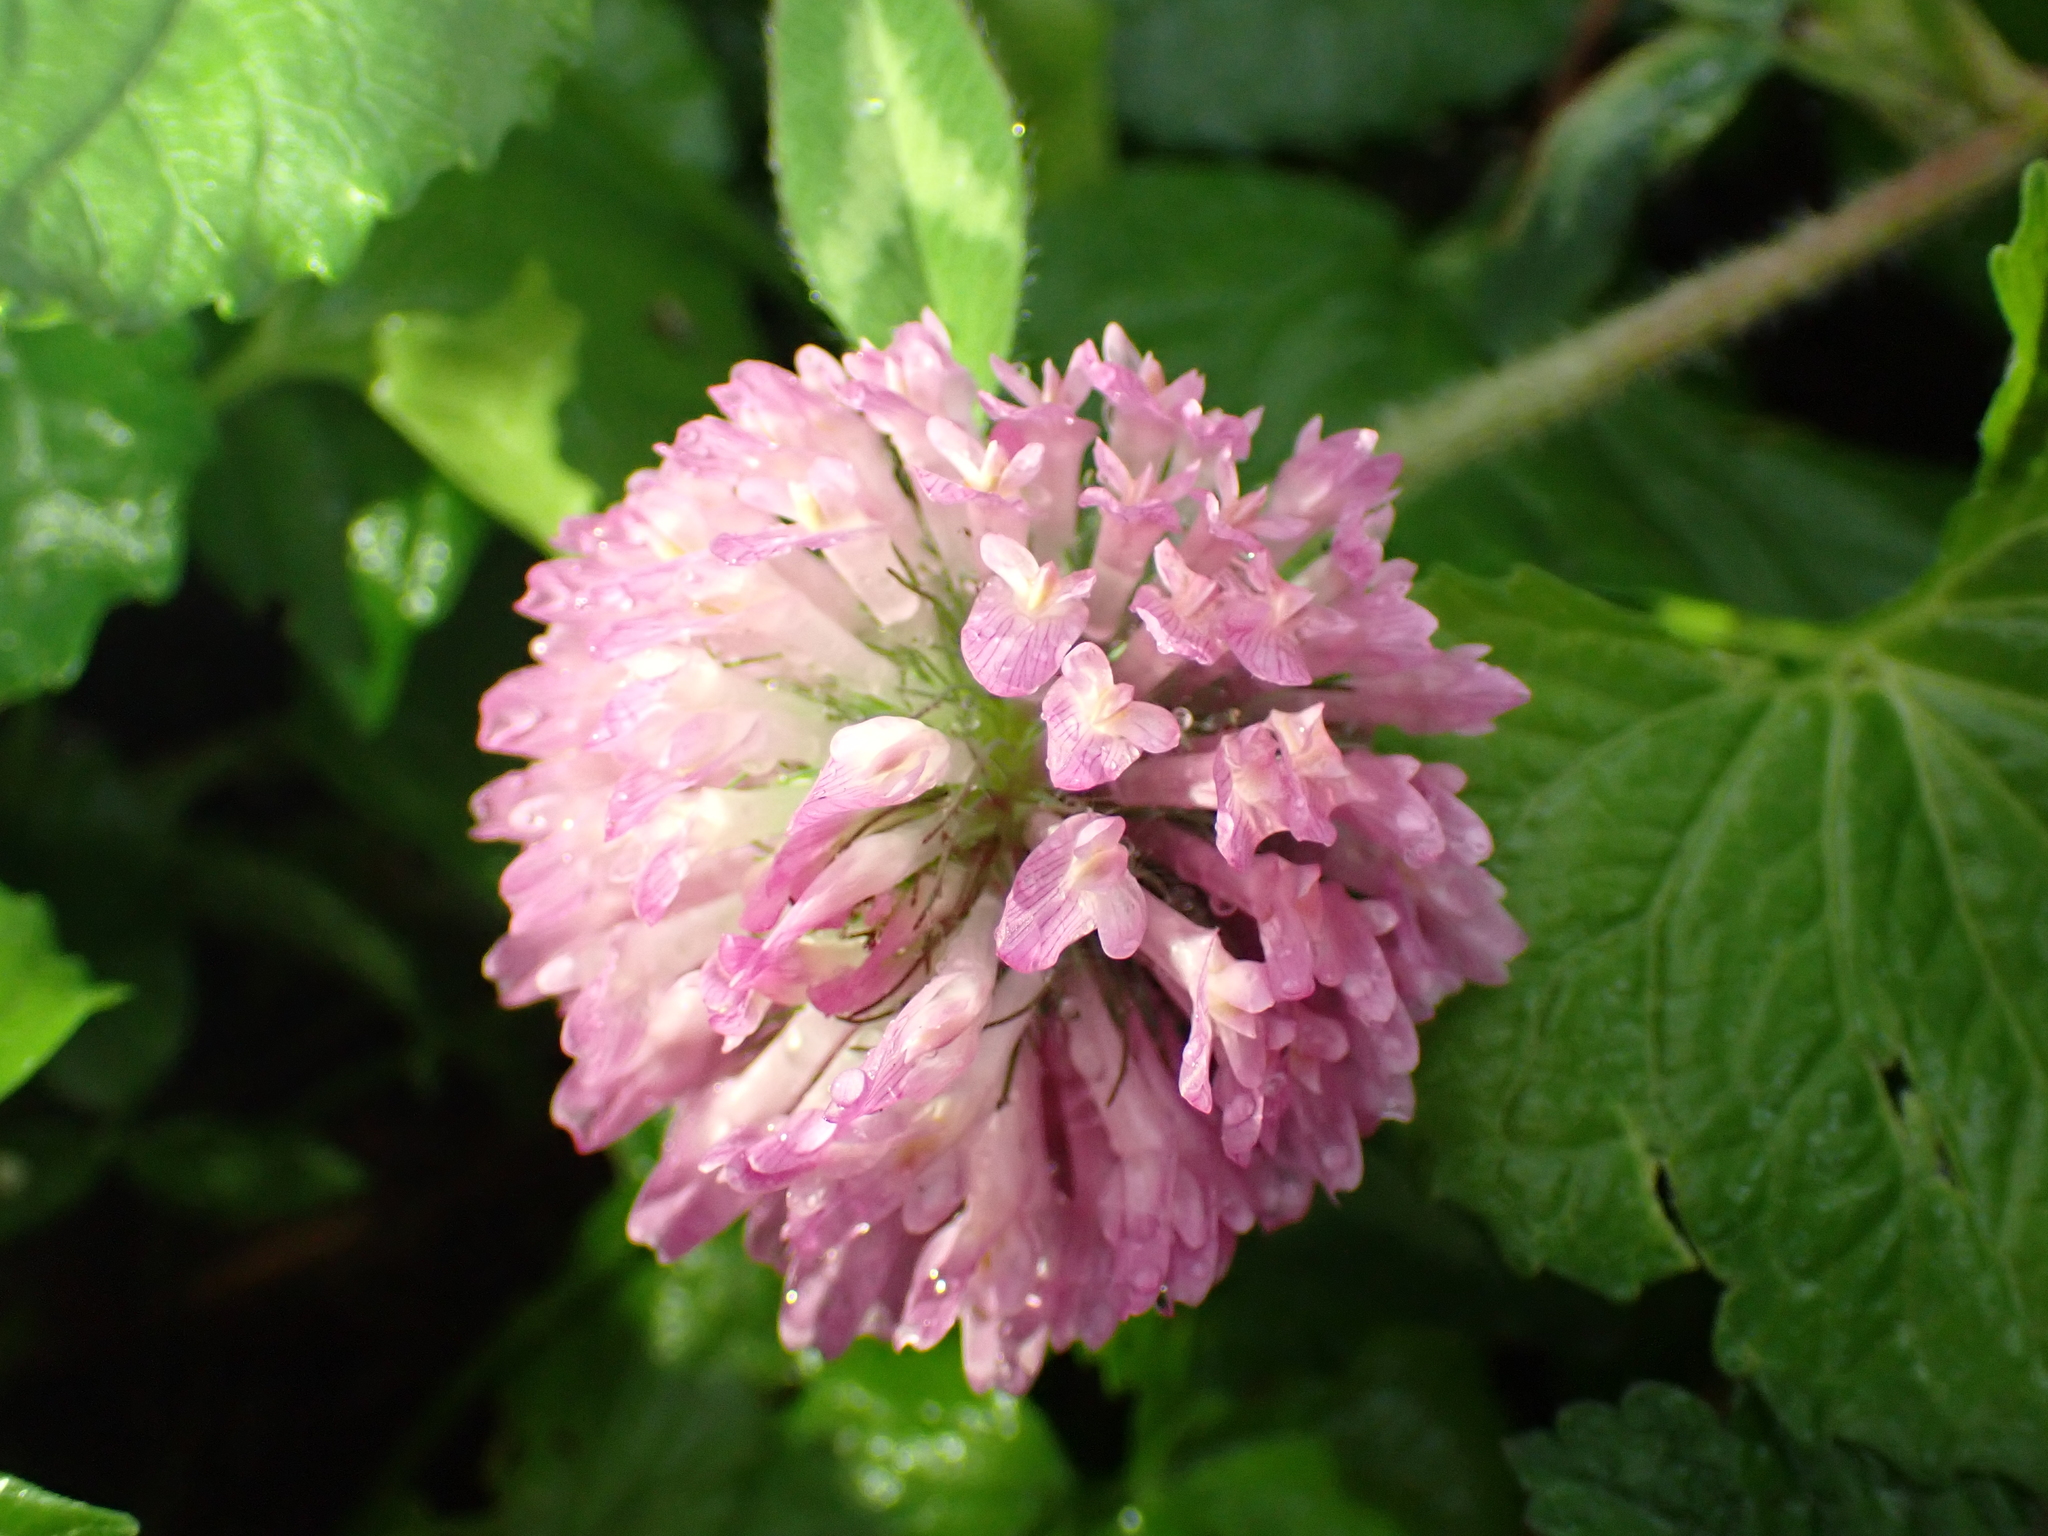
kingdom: Plantae
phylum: Tracheophyta
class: Magnoliopsida
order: Fabales
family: Fabaceae
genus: Trifolium
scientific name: Trifolium pratense
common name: Red clover
